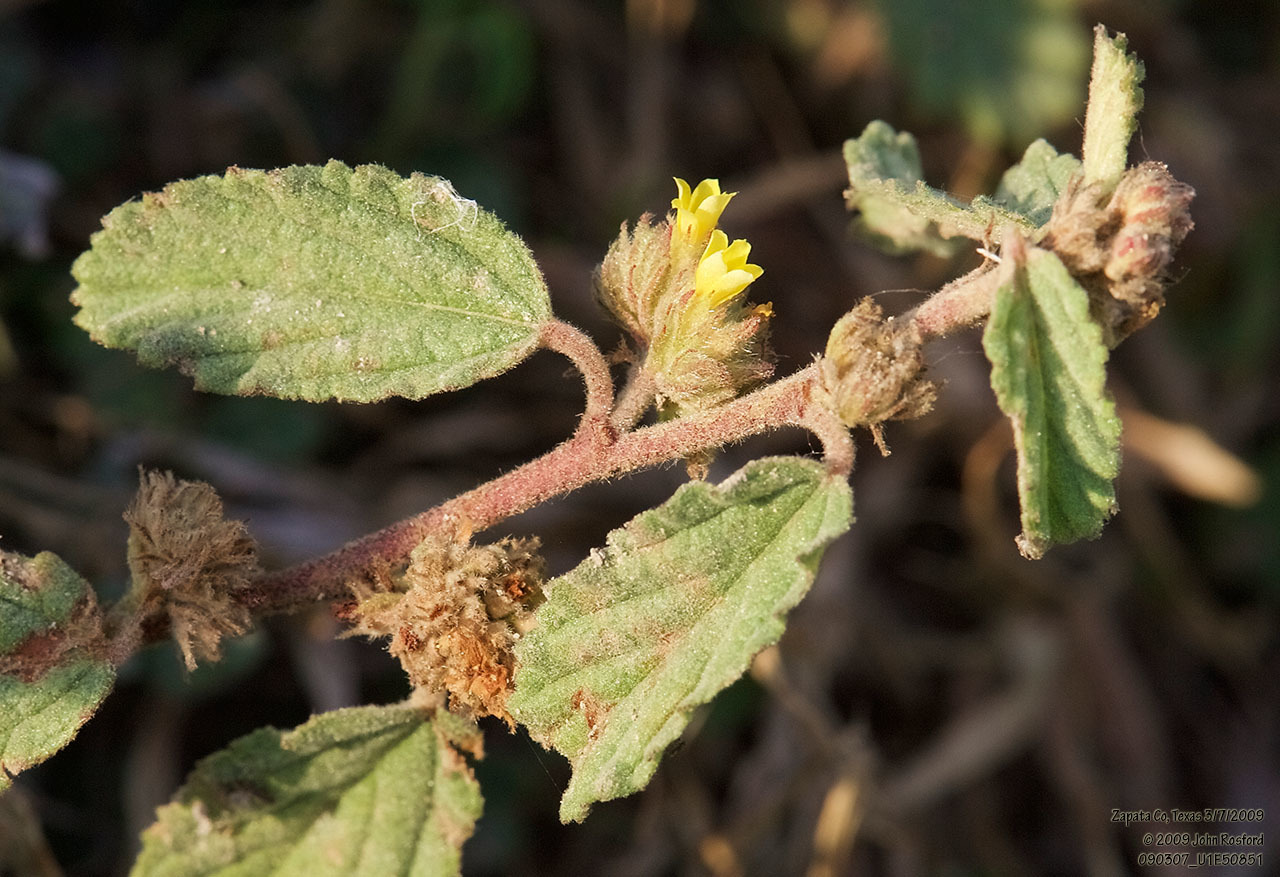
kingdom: Plantae
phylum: Tracheophyta
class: Magnoliopsida
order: Malvales
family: Malvaceae
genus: Waltheria
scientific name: Waltheria indica
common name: Leather-coat
